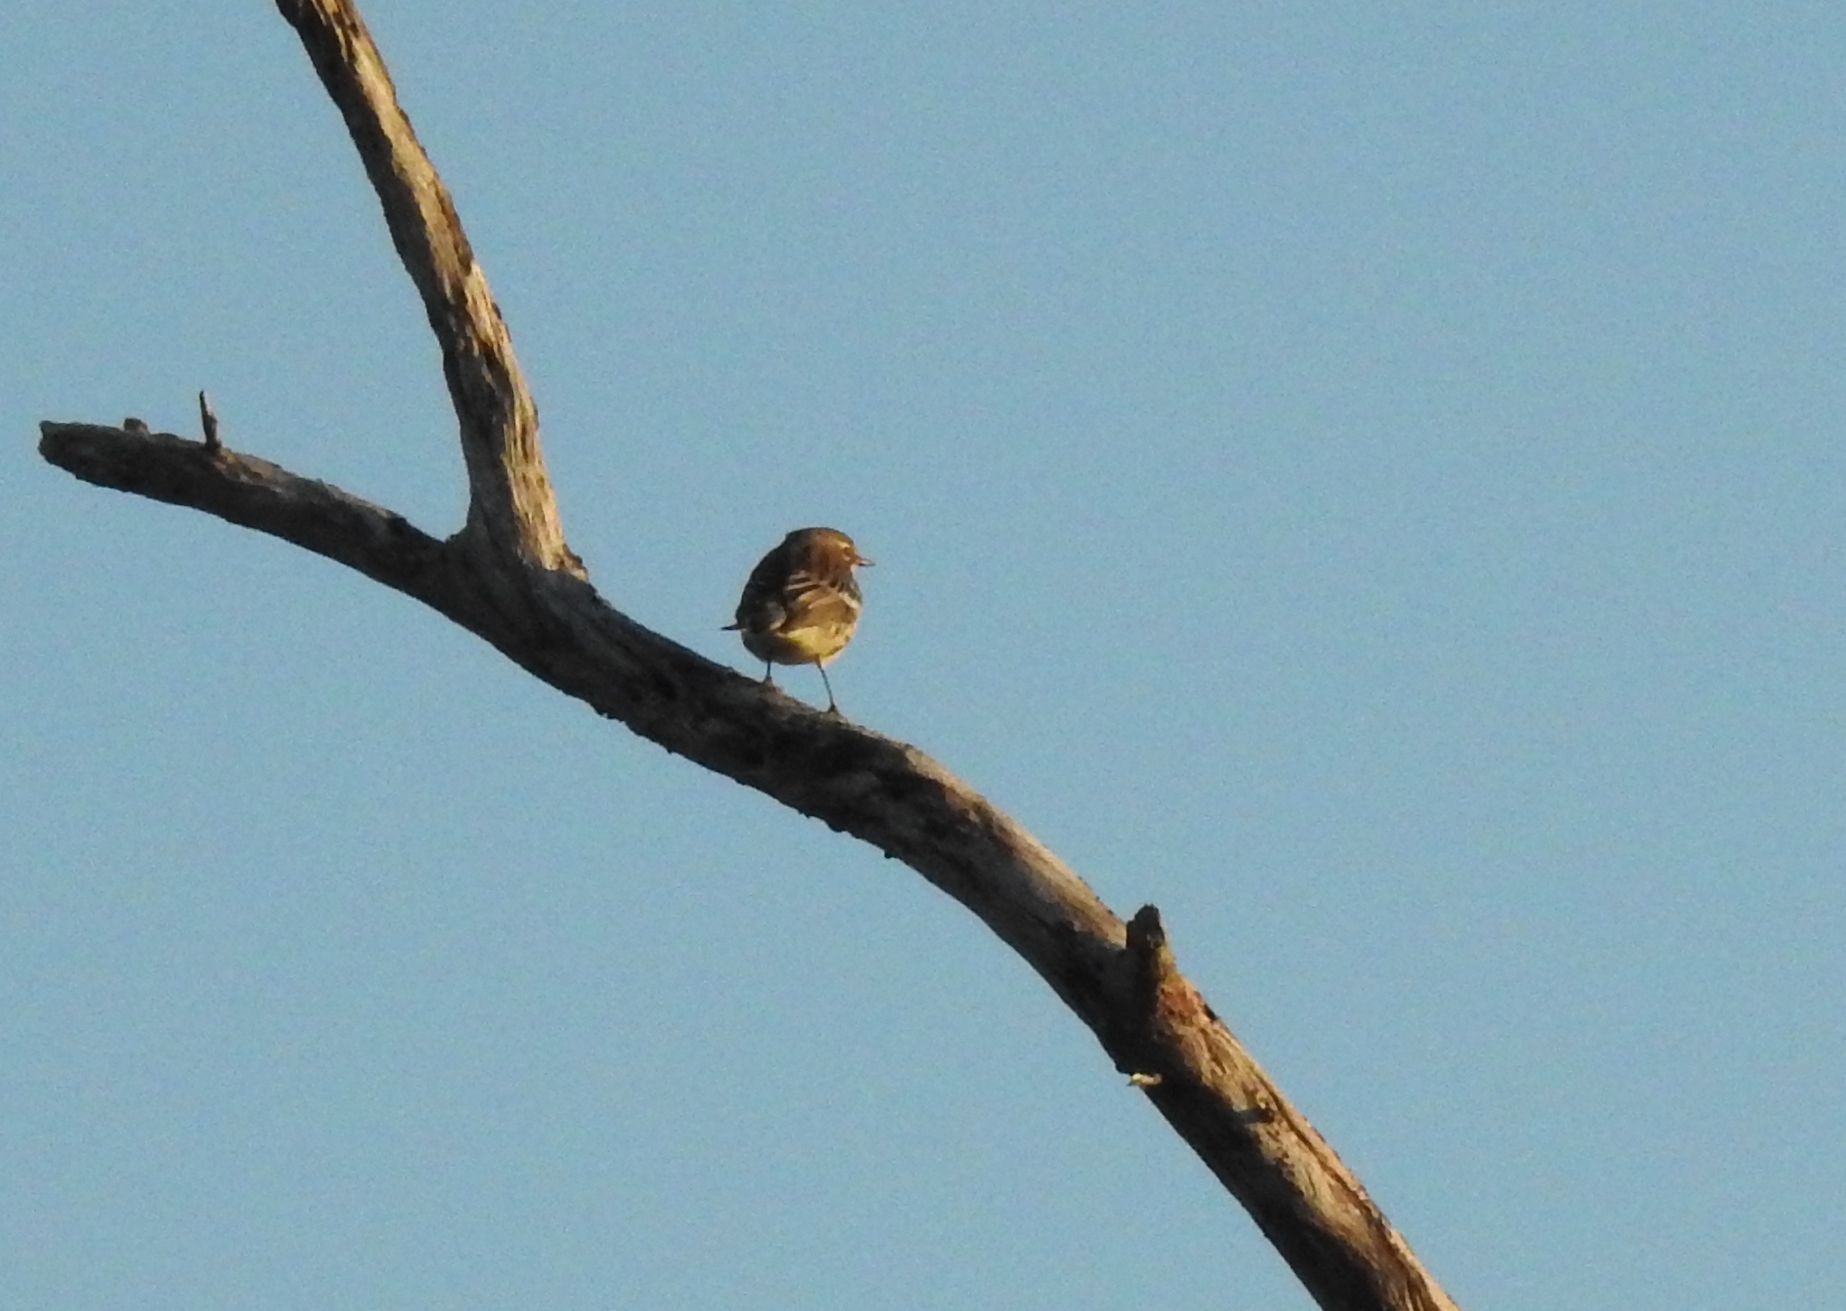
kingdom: Animalia
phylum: Chordata
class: Aves
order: Passeriformes
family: Parulidae
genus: Setophaga
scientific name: Setophaga coronata
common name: Myrtle warbler
